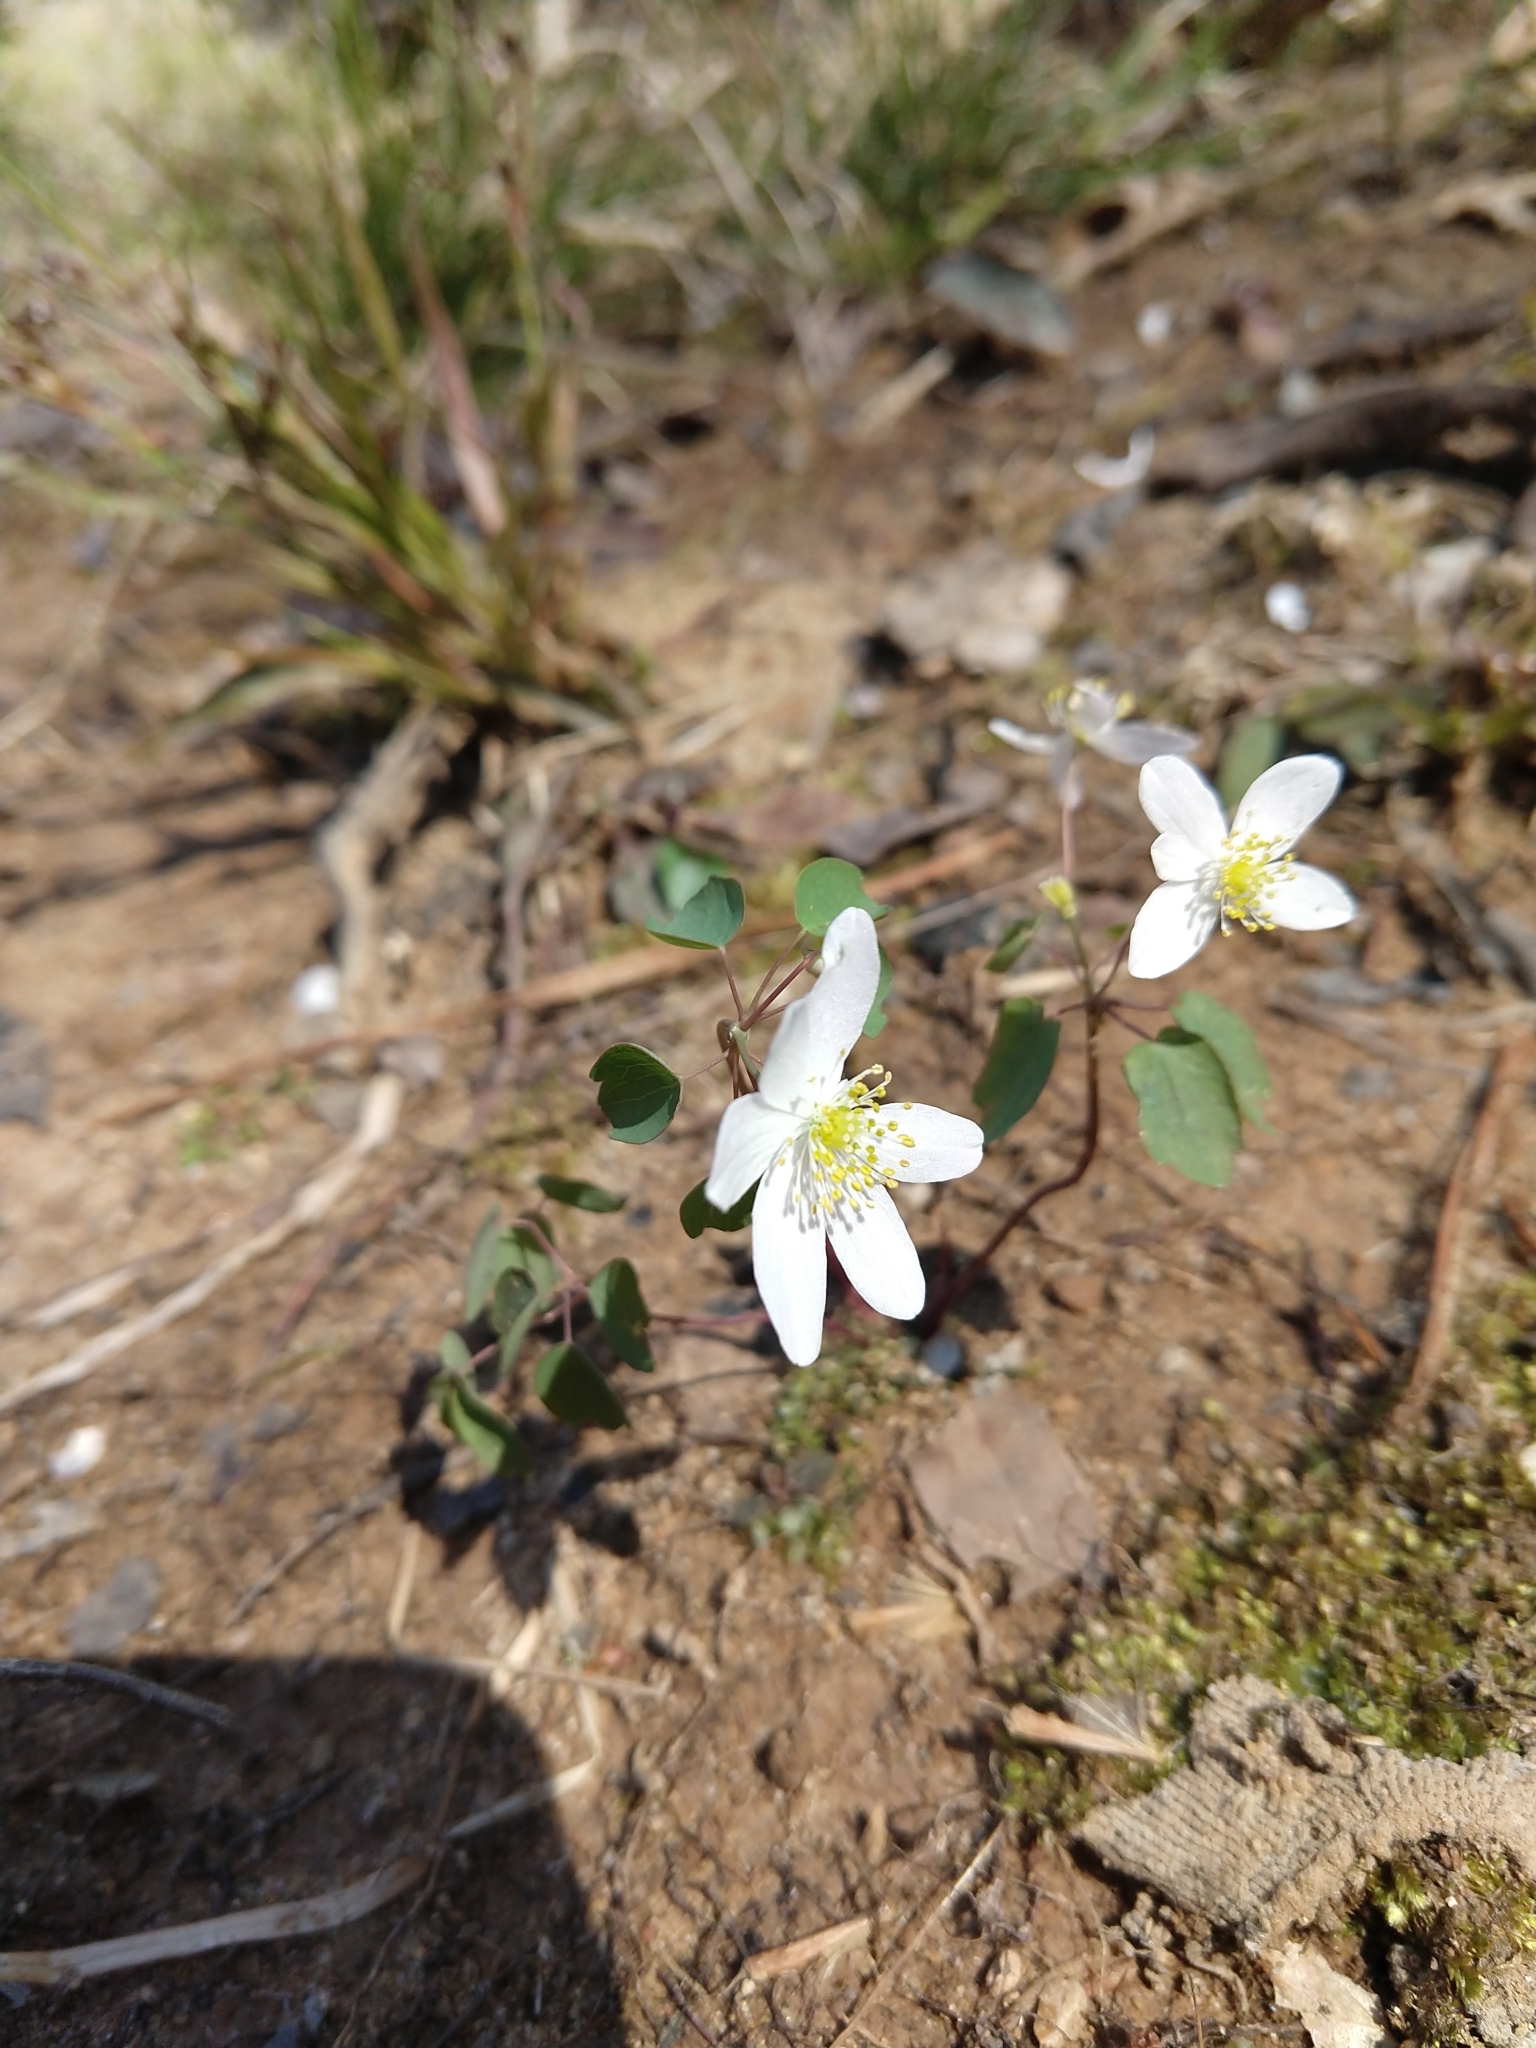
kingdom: Plantae
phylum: Tracheophyta
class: Magnoliopsida
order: Ranunculales
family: Ranunculaceae
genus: Thalictrum
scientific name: Thalictrum thalictroides
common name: Rue-anemone
